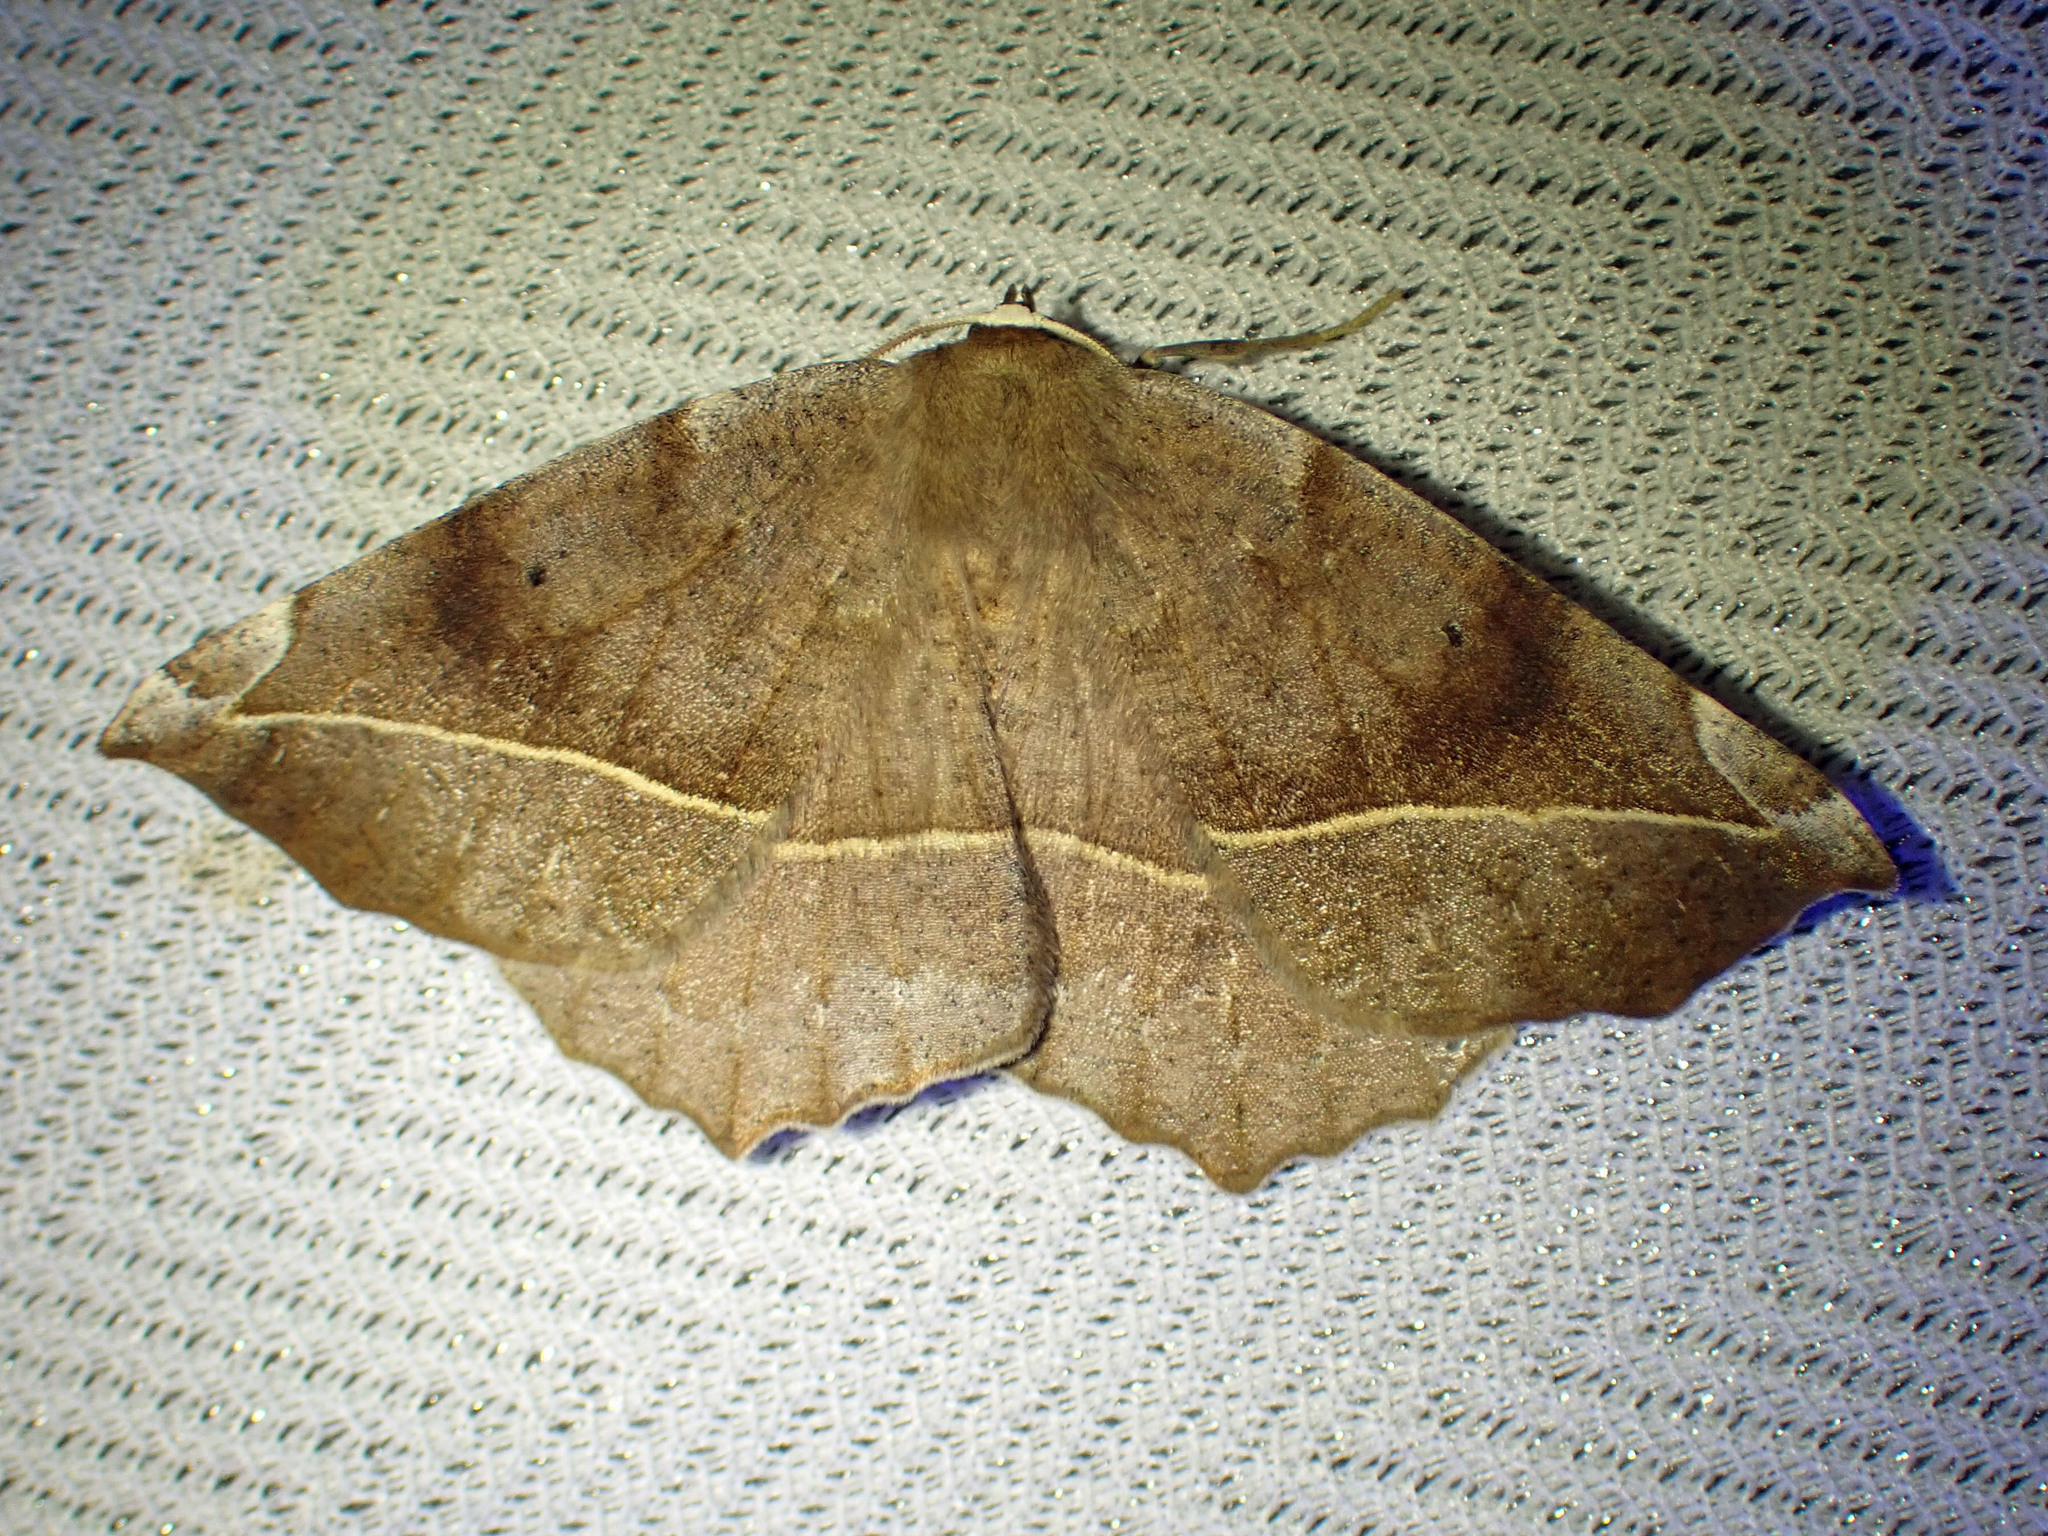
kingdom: Animalia
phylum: Arthropoda
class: Insecta
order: Lepidoptera
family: Geometridae
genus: Eutrapela
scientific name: Eutrapela clemataria
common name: Curved-toothed geometer
